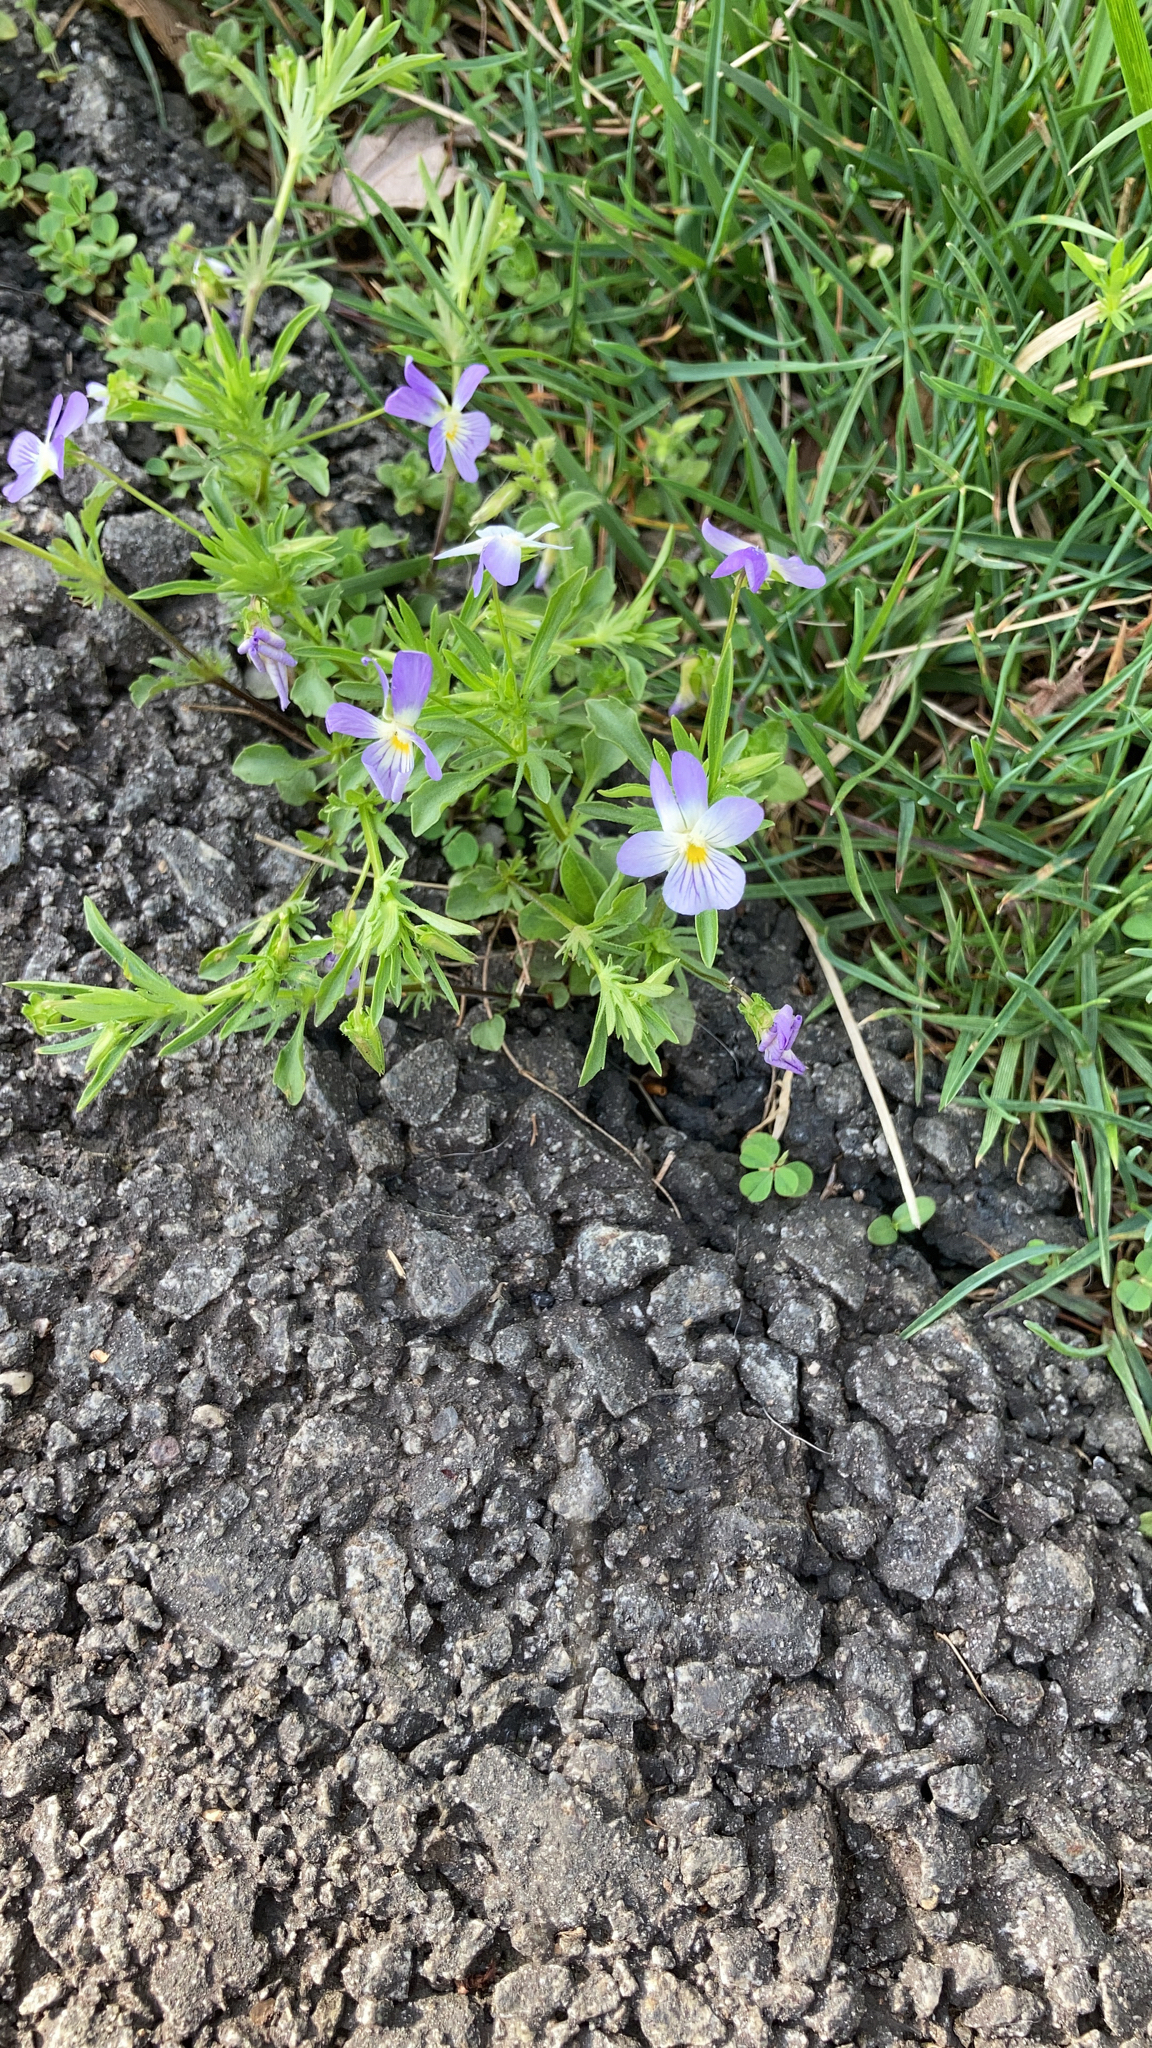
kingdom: Plantae
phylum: Tracheophyta
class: Magnoliopsida
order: Malpighiales
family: Violaceae
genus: Viola
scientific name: Viola rafinesquei
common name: American field pansy
